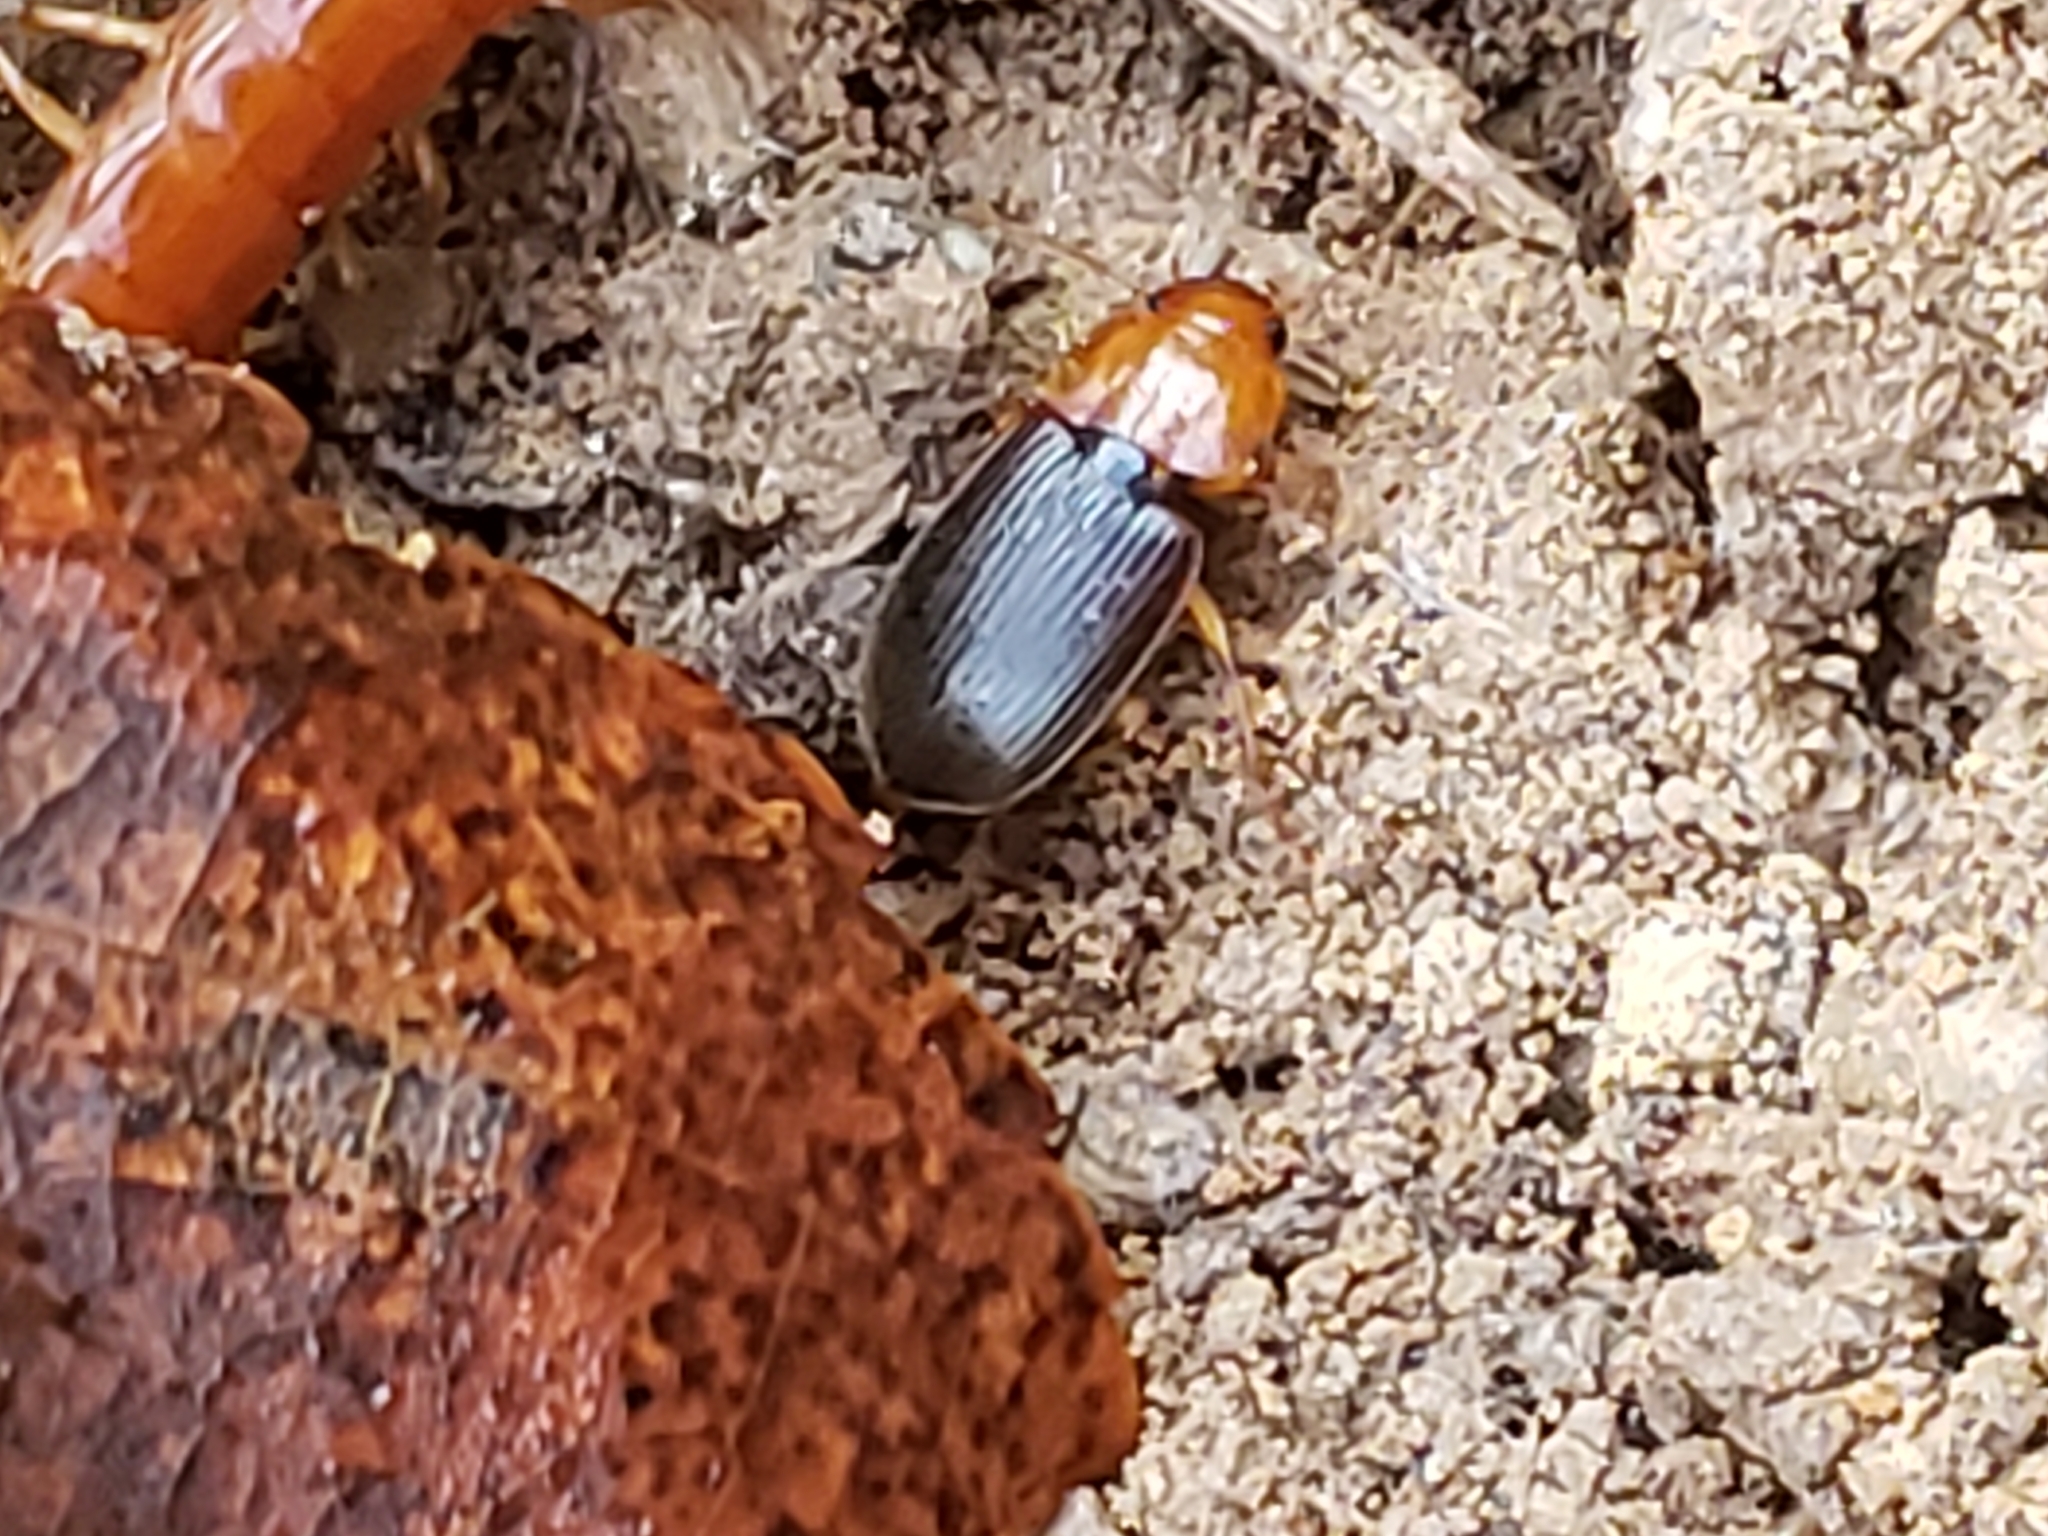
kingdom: Animalia
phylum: Arthropoda
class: Insecta
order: Coleoptera
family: Carabidae
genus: Amphasia
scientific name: Amphasia interstitialis
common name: Red-headed ground beetle
